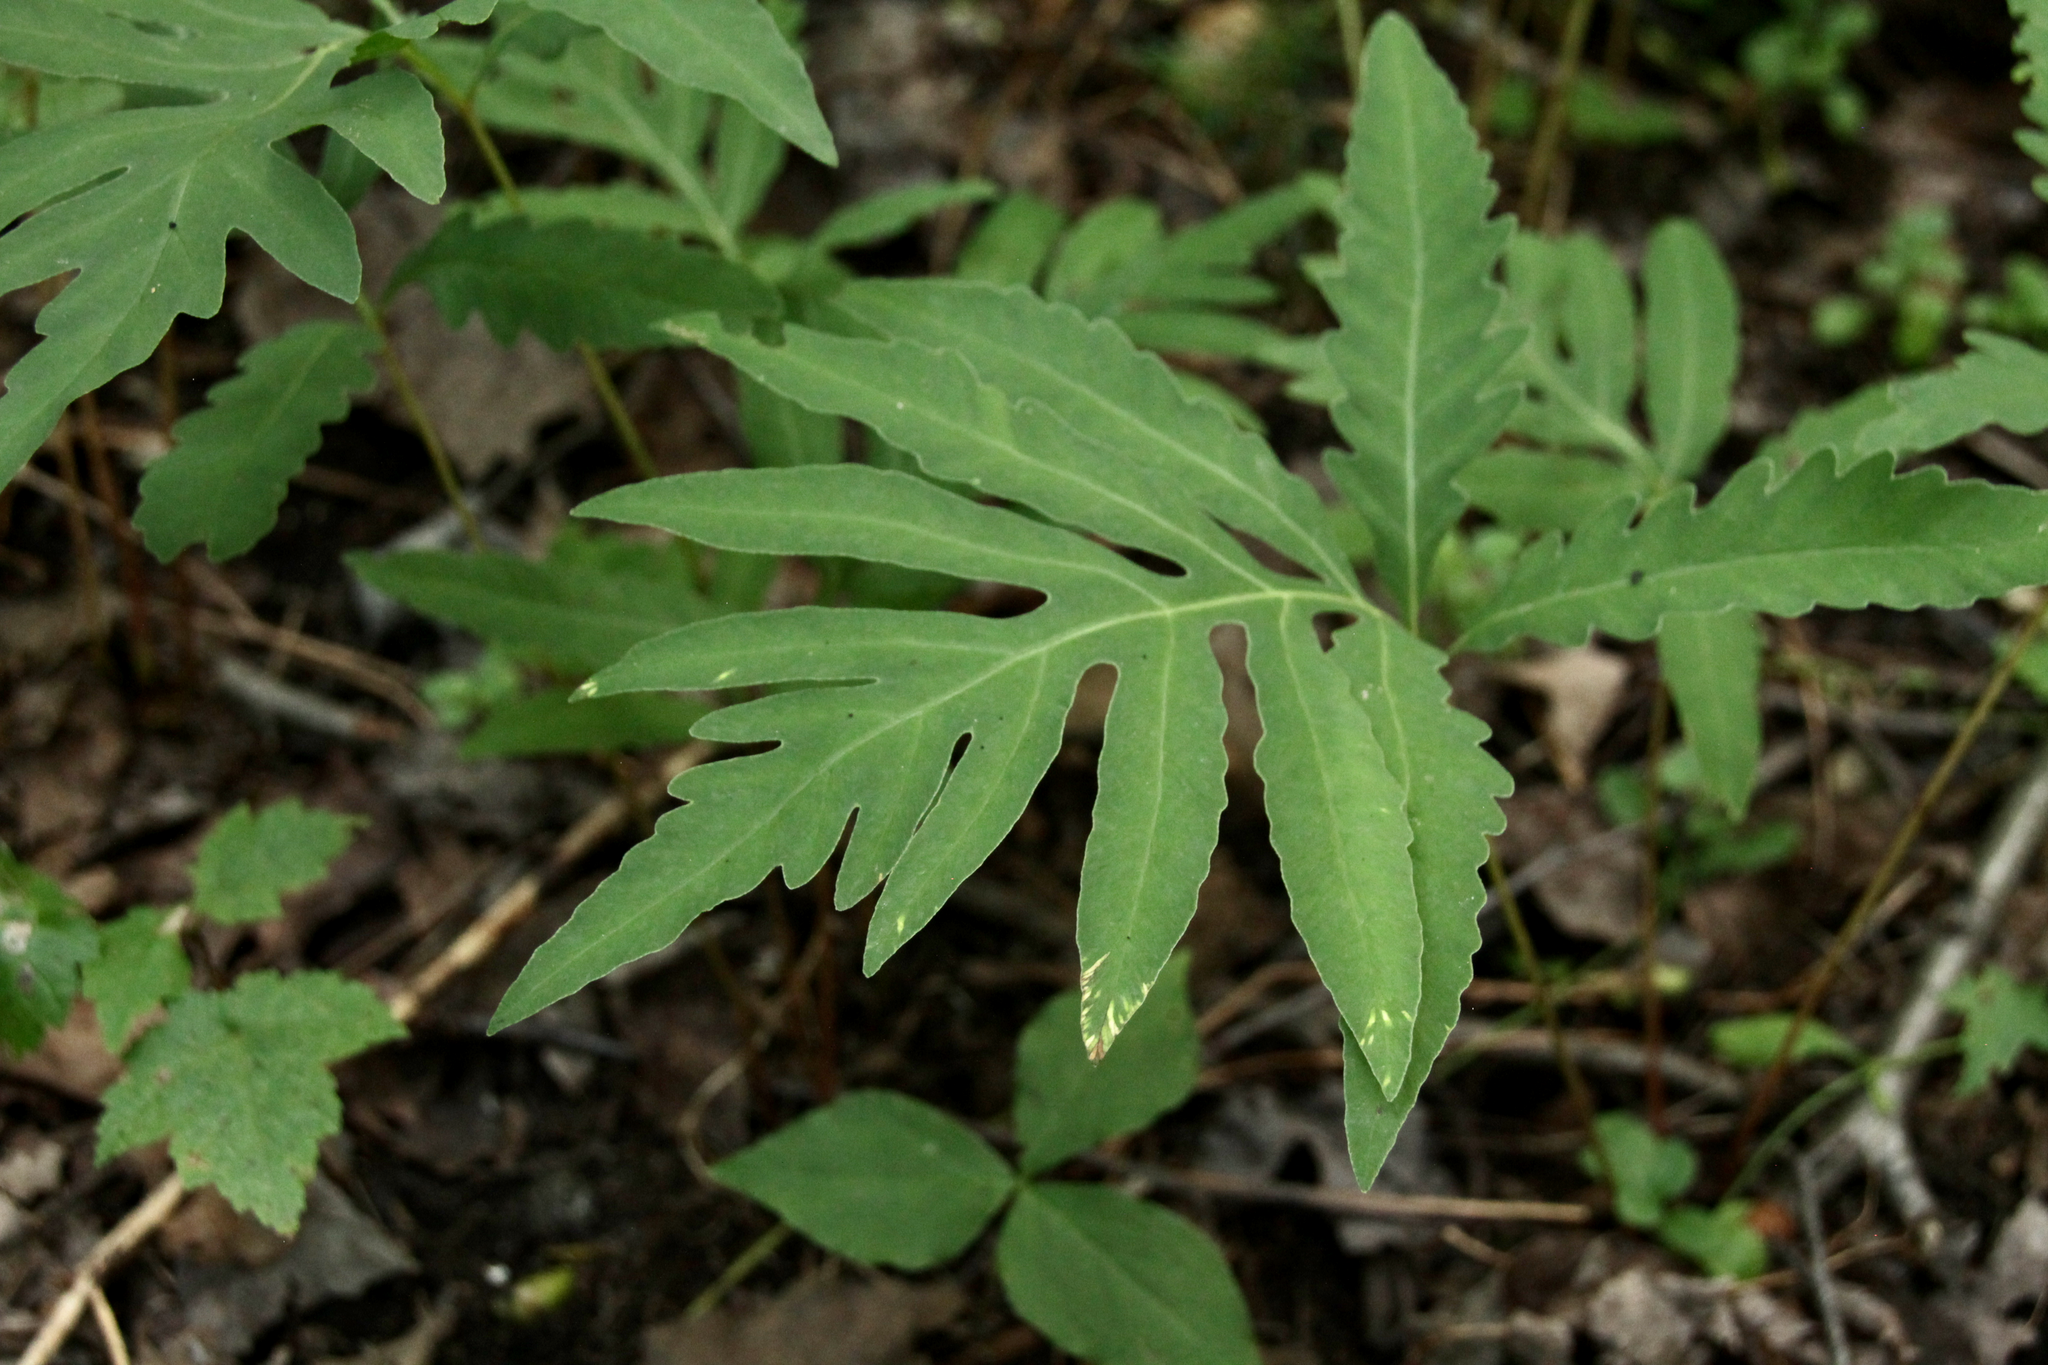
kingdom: Plantae
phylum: Tracheophyta
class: Polypodiopsida
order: Polypodiales
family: Onocleaceae
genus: Onoclea
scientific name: Onoclea sensibilis
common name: Sensitive fern
